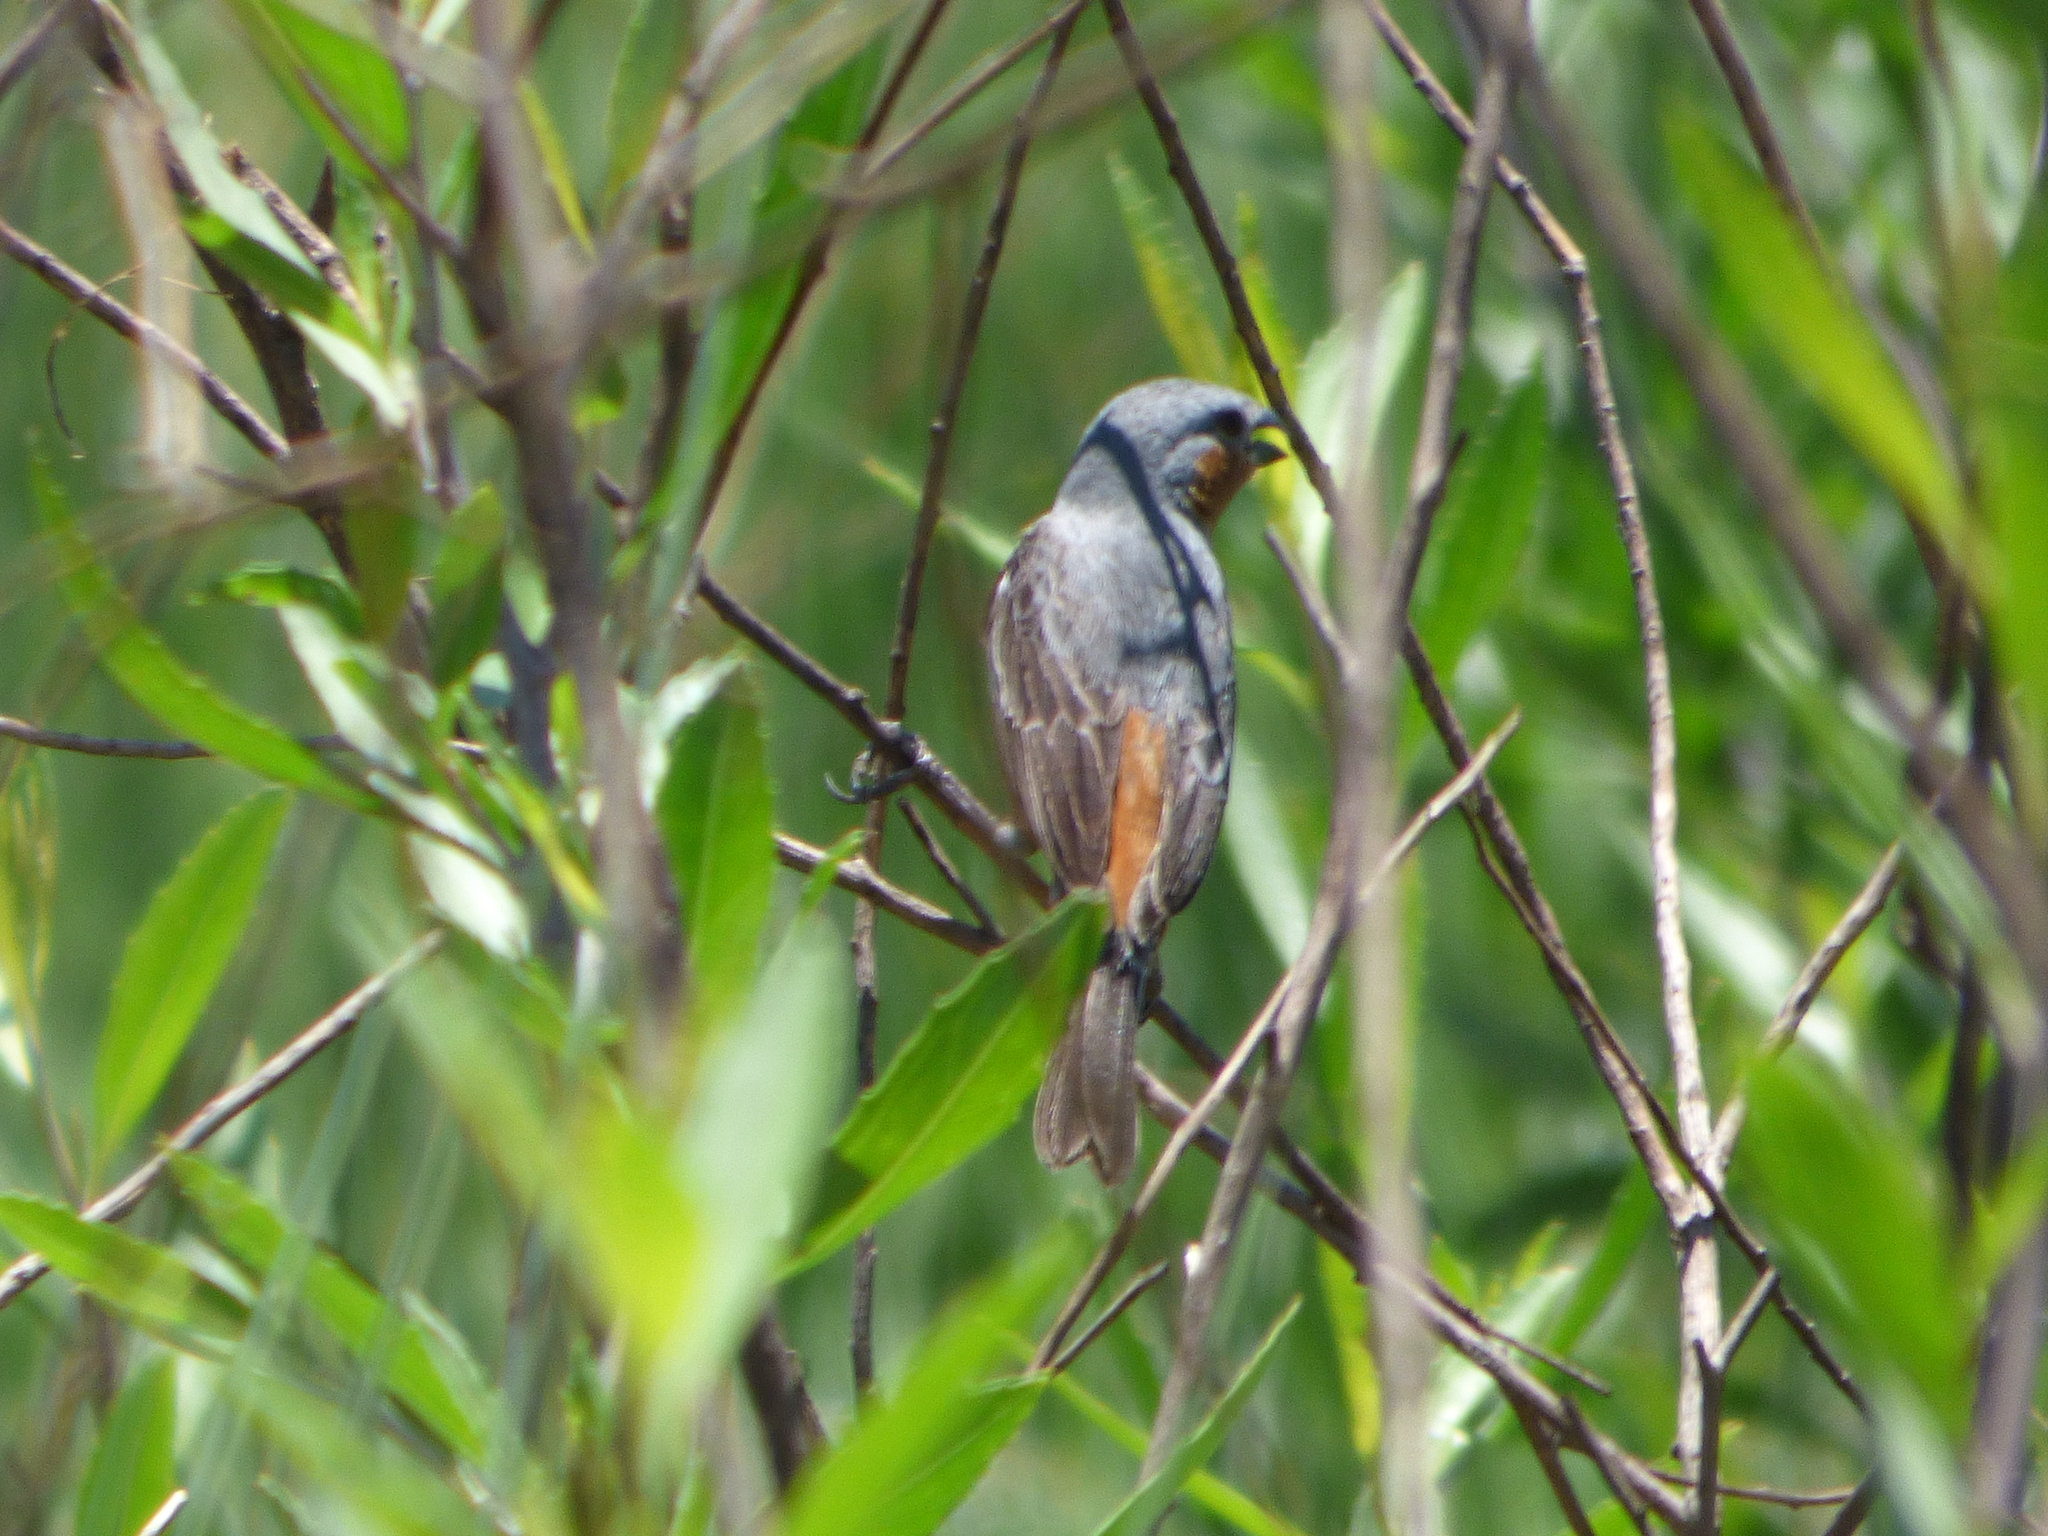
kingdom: Animalia
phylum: Chordata
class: Aves
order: Passeriformes
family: Thraupidae
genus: Sporophila
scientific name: Sporophila hypoxantha
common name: Tawny-bellied seedeater
